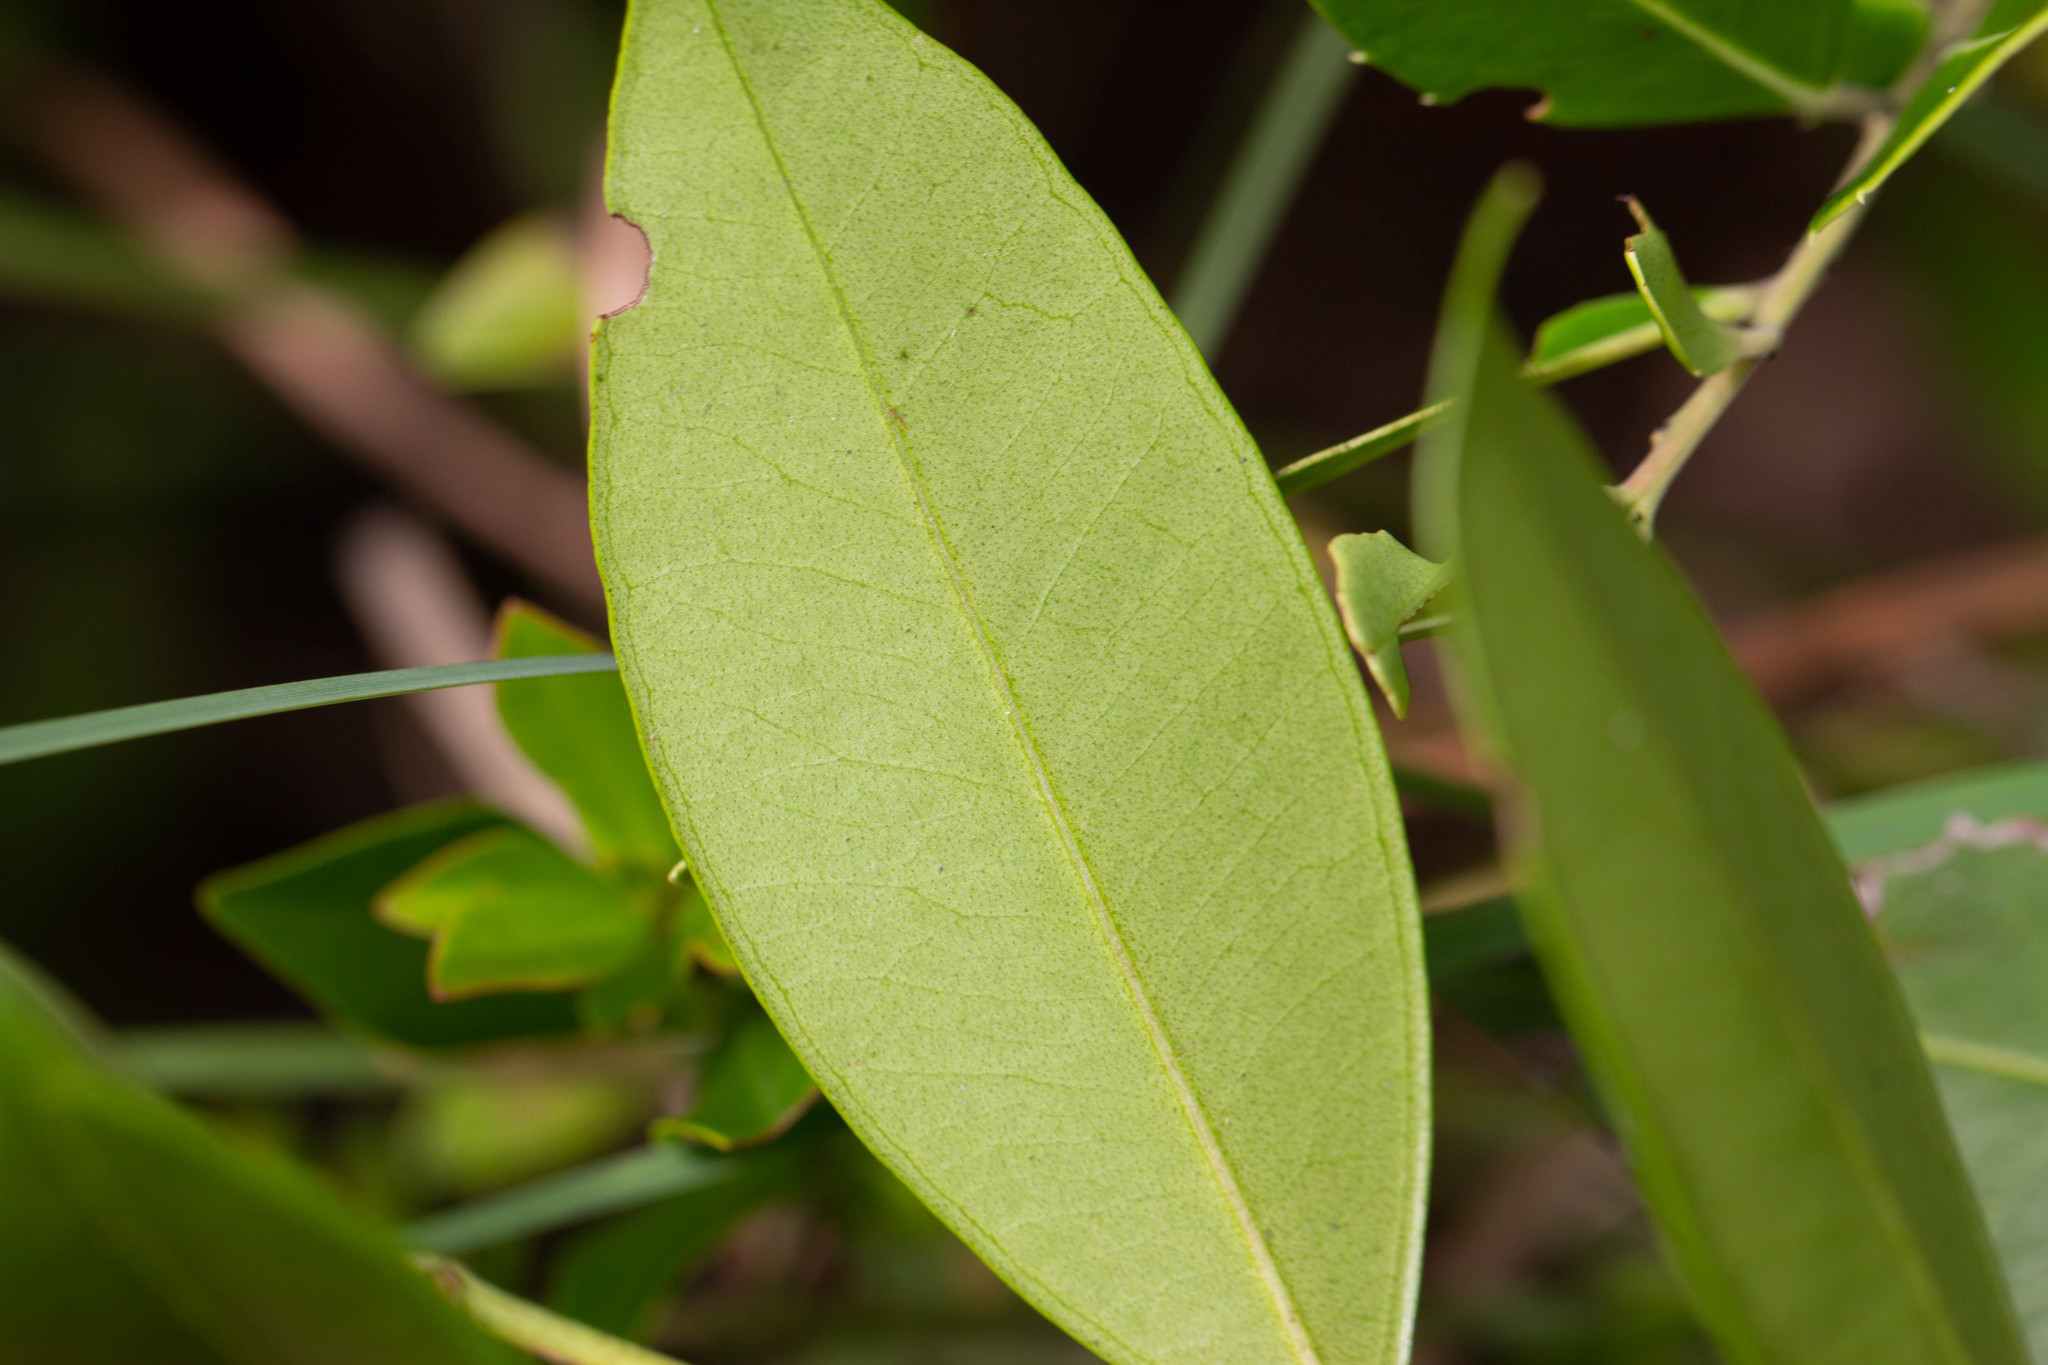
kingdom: Plantae
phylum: Tracheophyta
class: Magnoliopsida
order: Ericales
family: Ericaceae
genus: Lyonia
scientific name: Lyonia lucida
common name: Fetterbush
